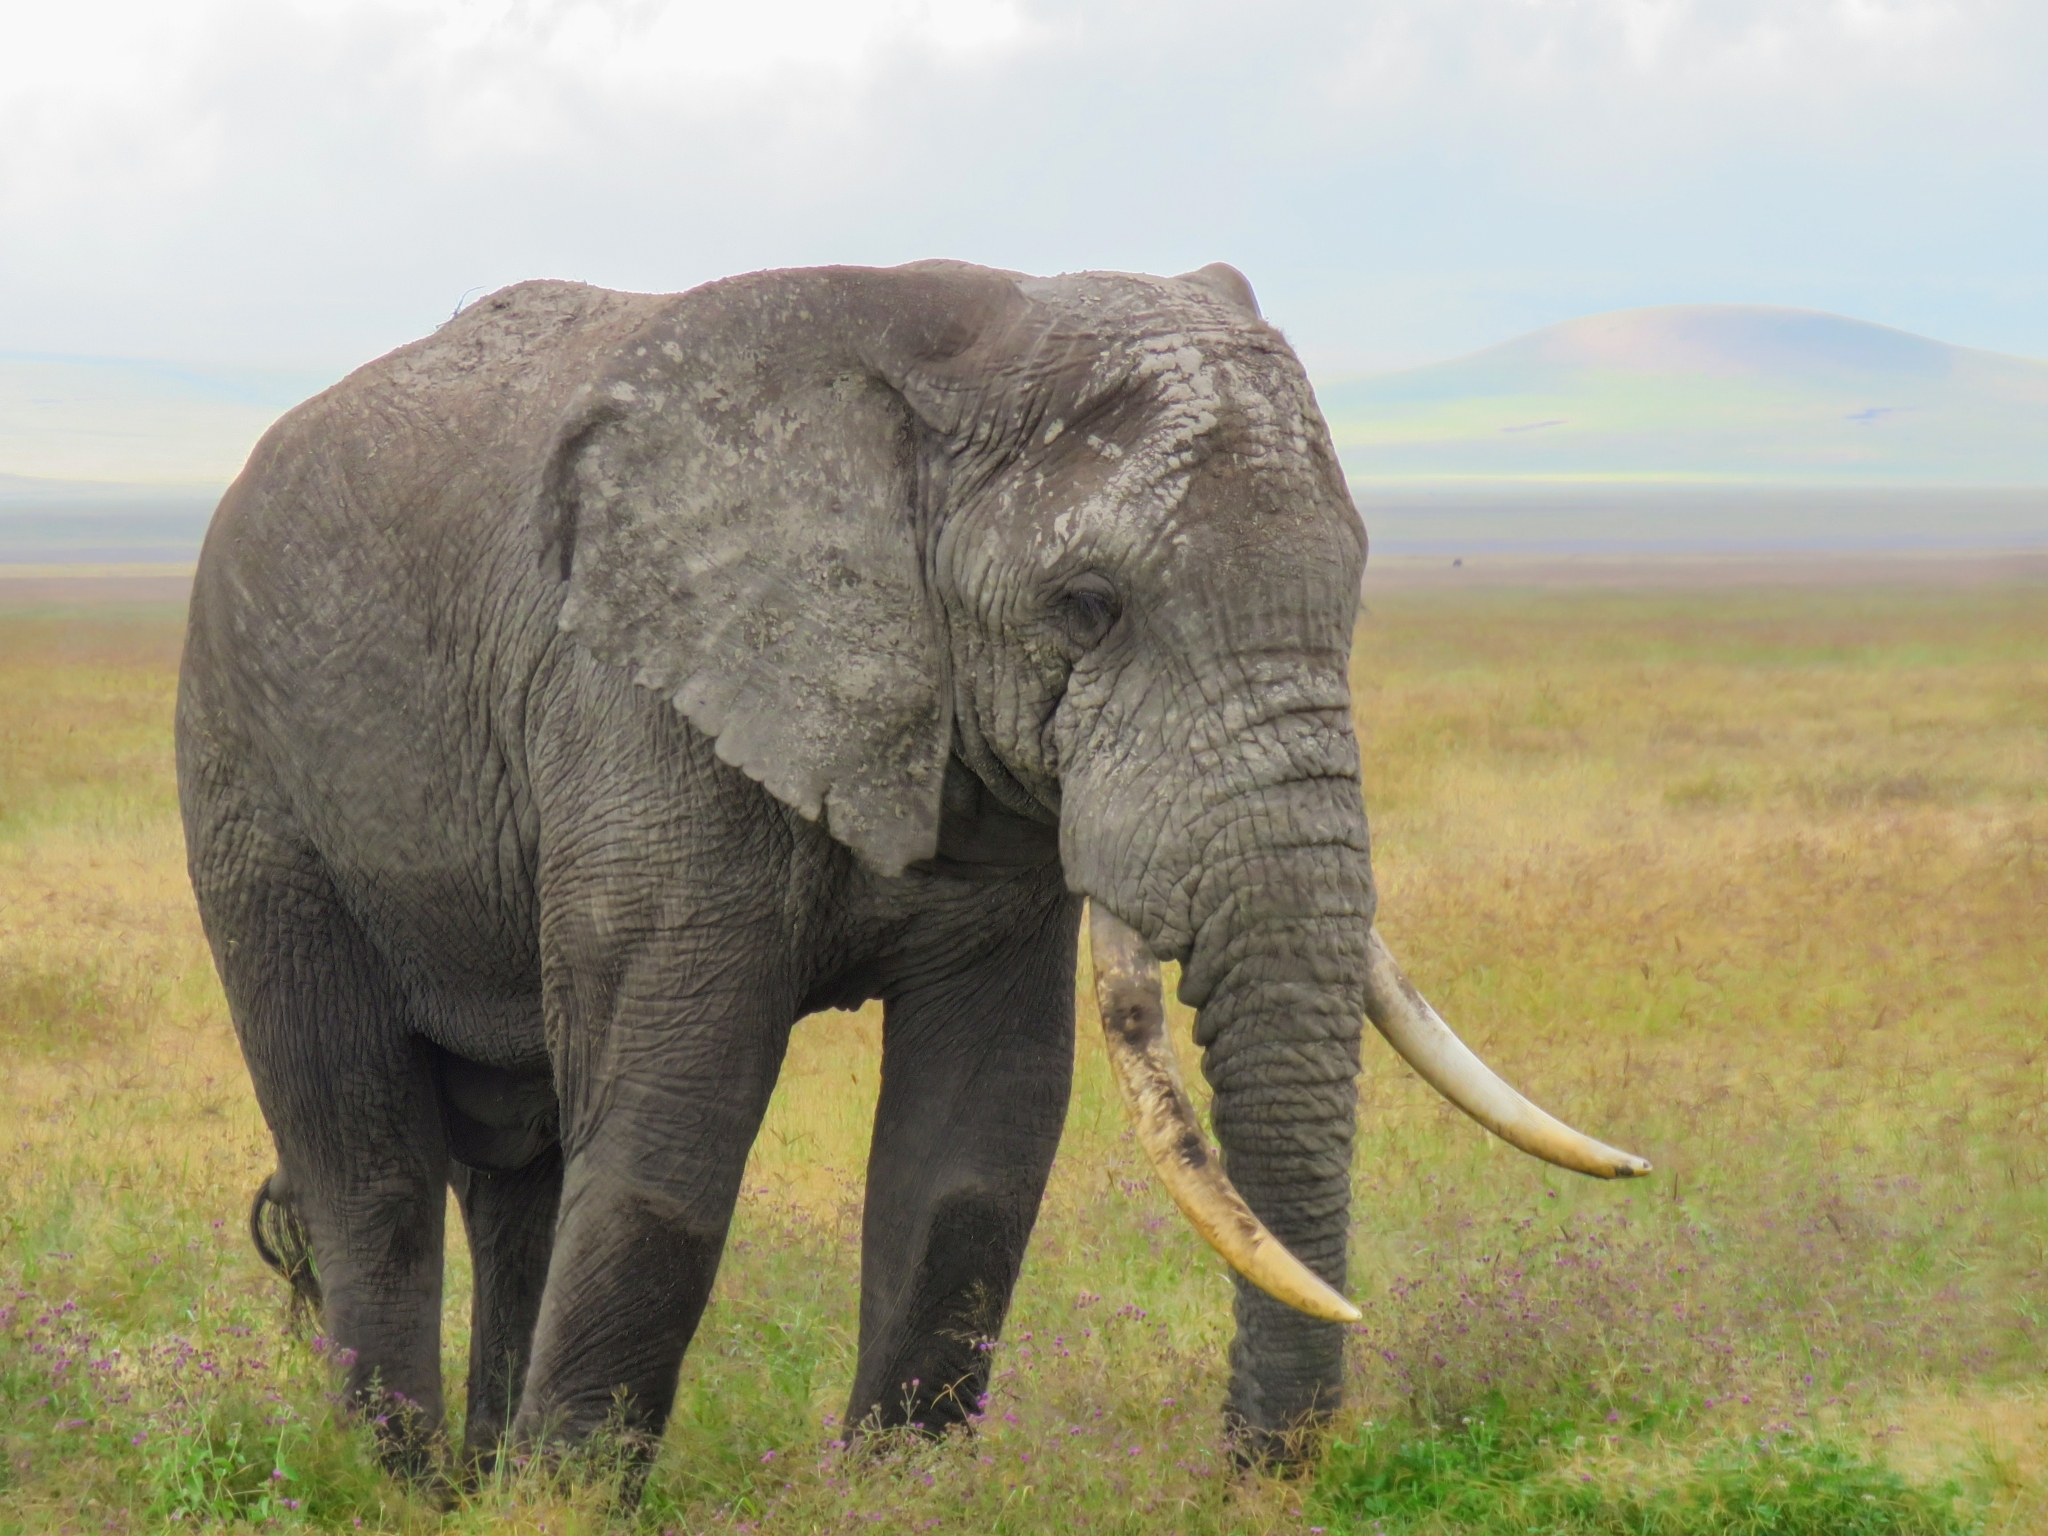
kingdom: Animalia
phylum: Chordata
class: Mammalia
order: Proboscidea
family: Elephantidae
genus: Loxodonta
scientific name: Loxodonta africana
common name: African elephant
